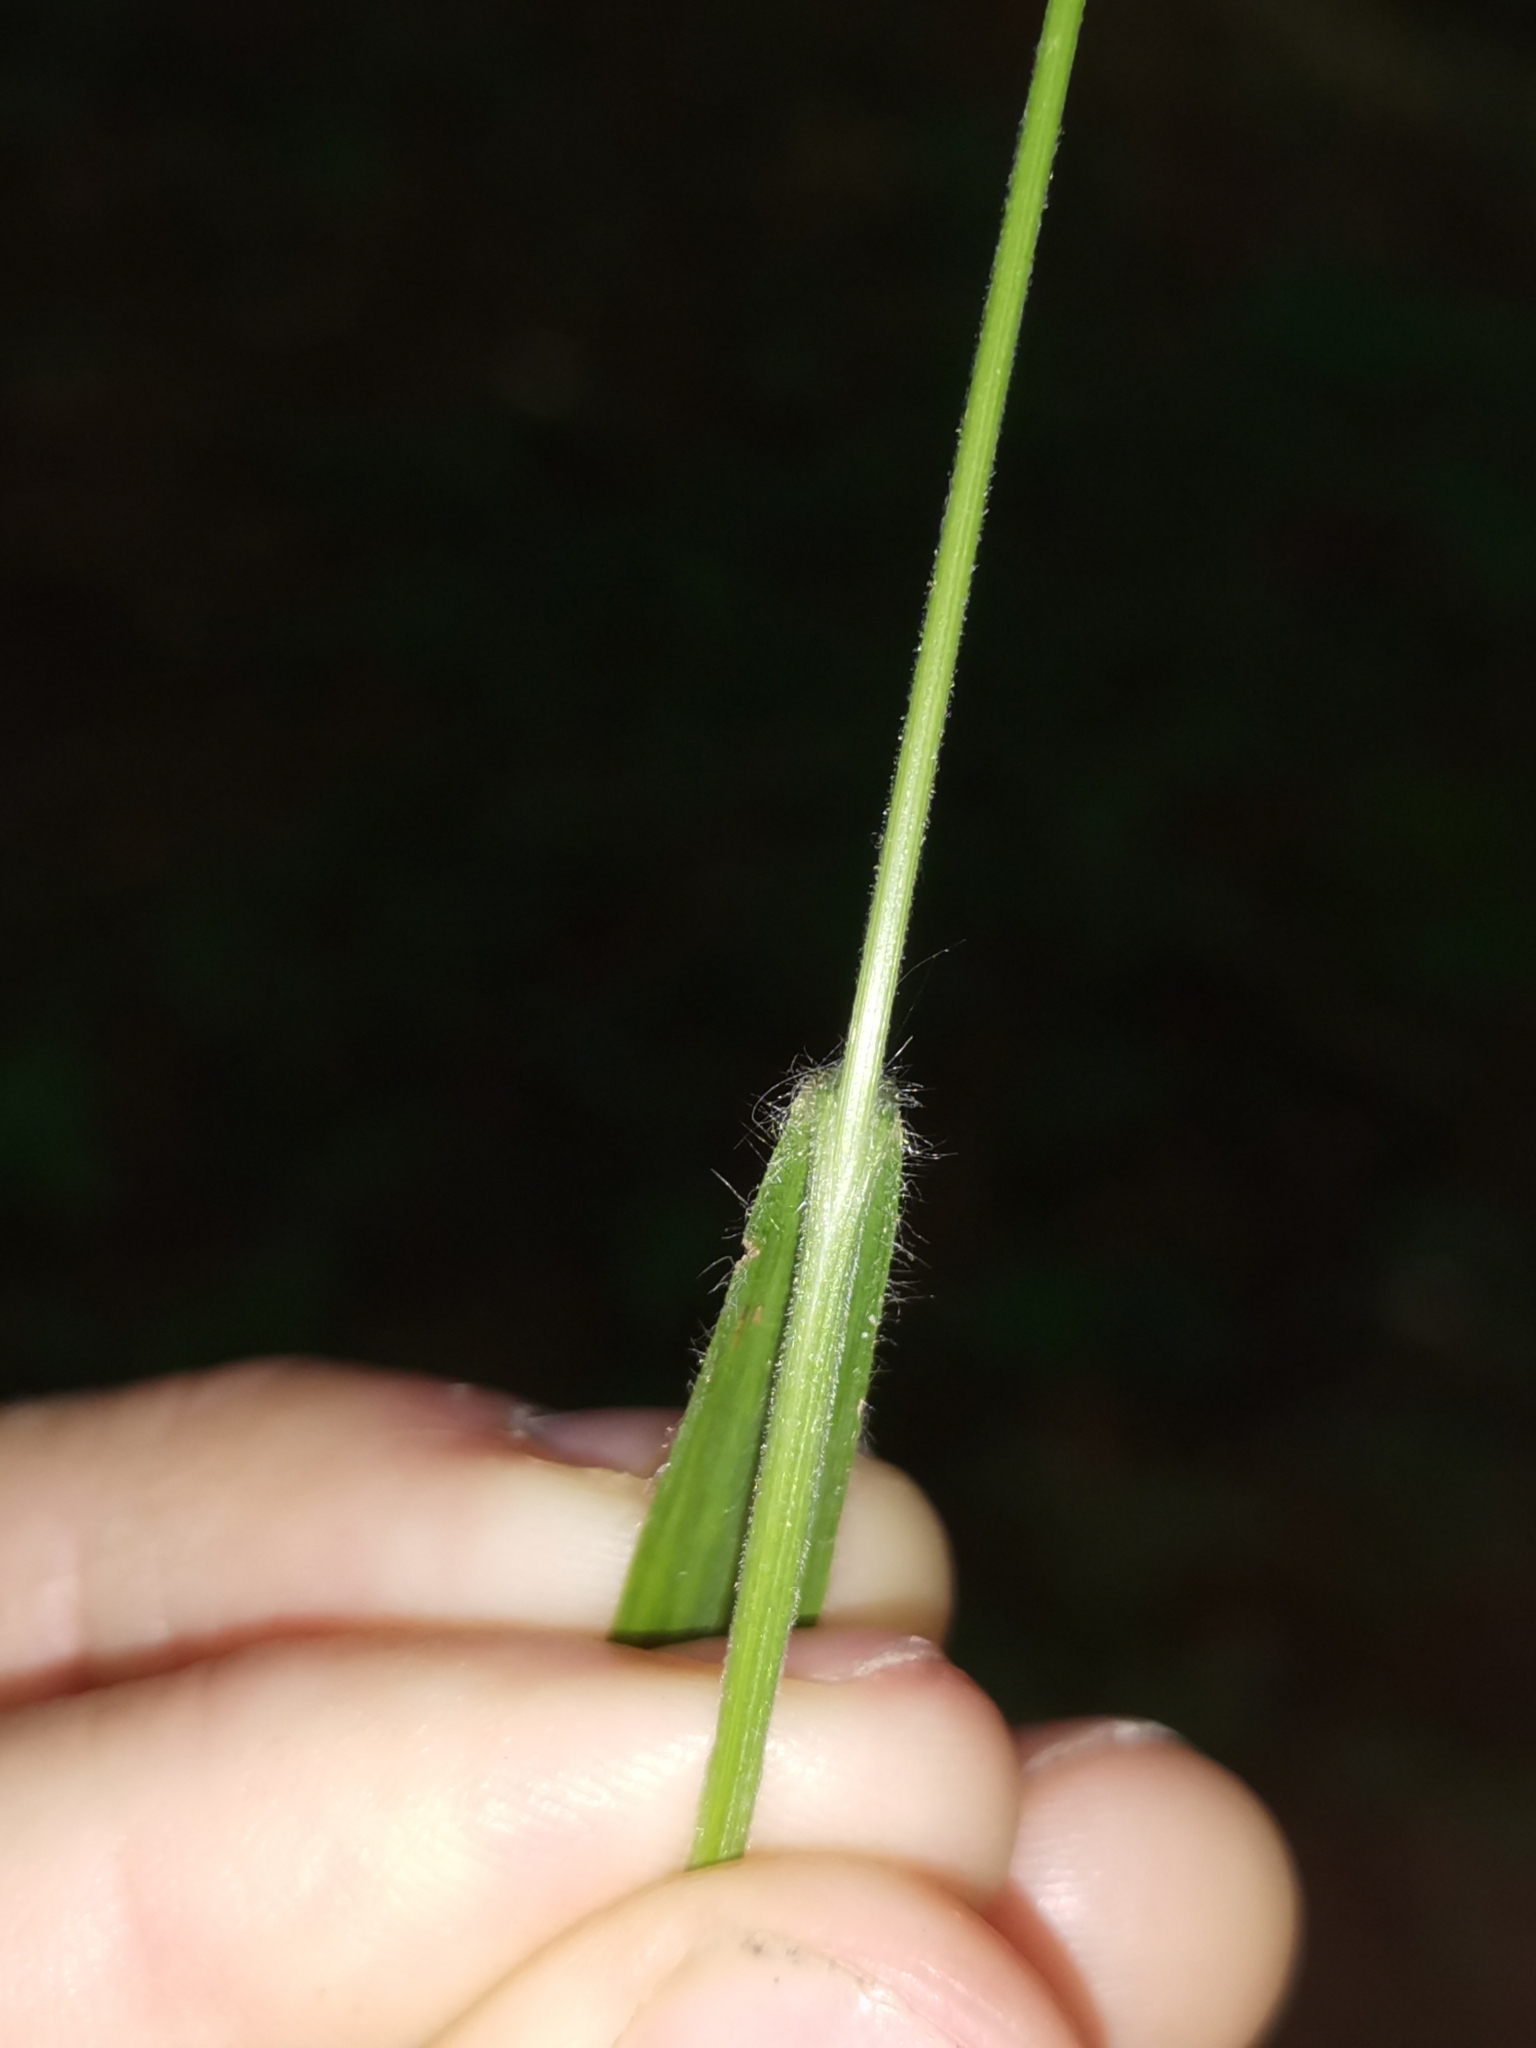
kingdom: Plantae
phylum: Tracheophyta
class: Liliopsida
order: Poales
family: Poaceae
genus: Bromus
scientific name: Bromus benekenii
